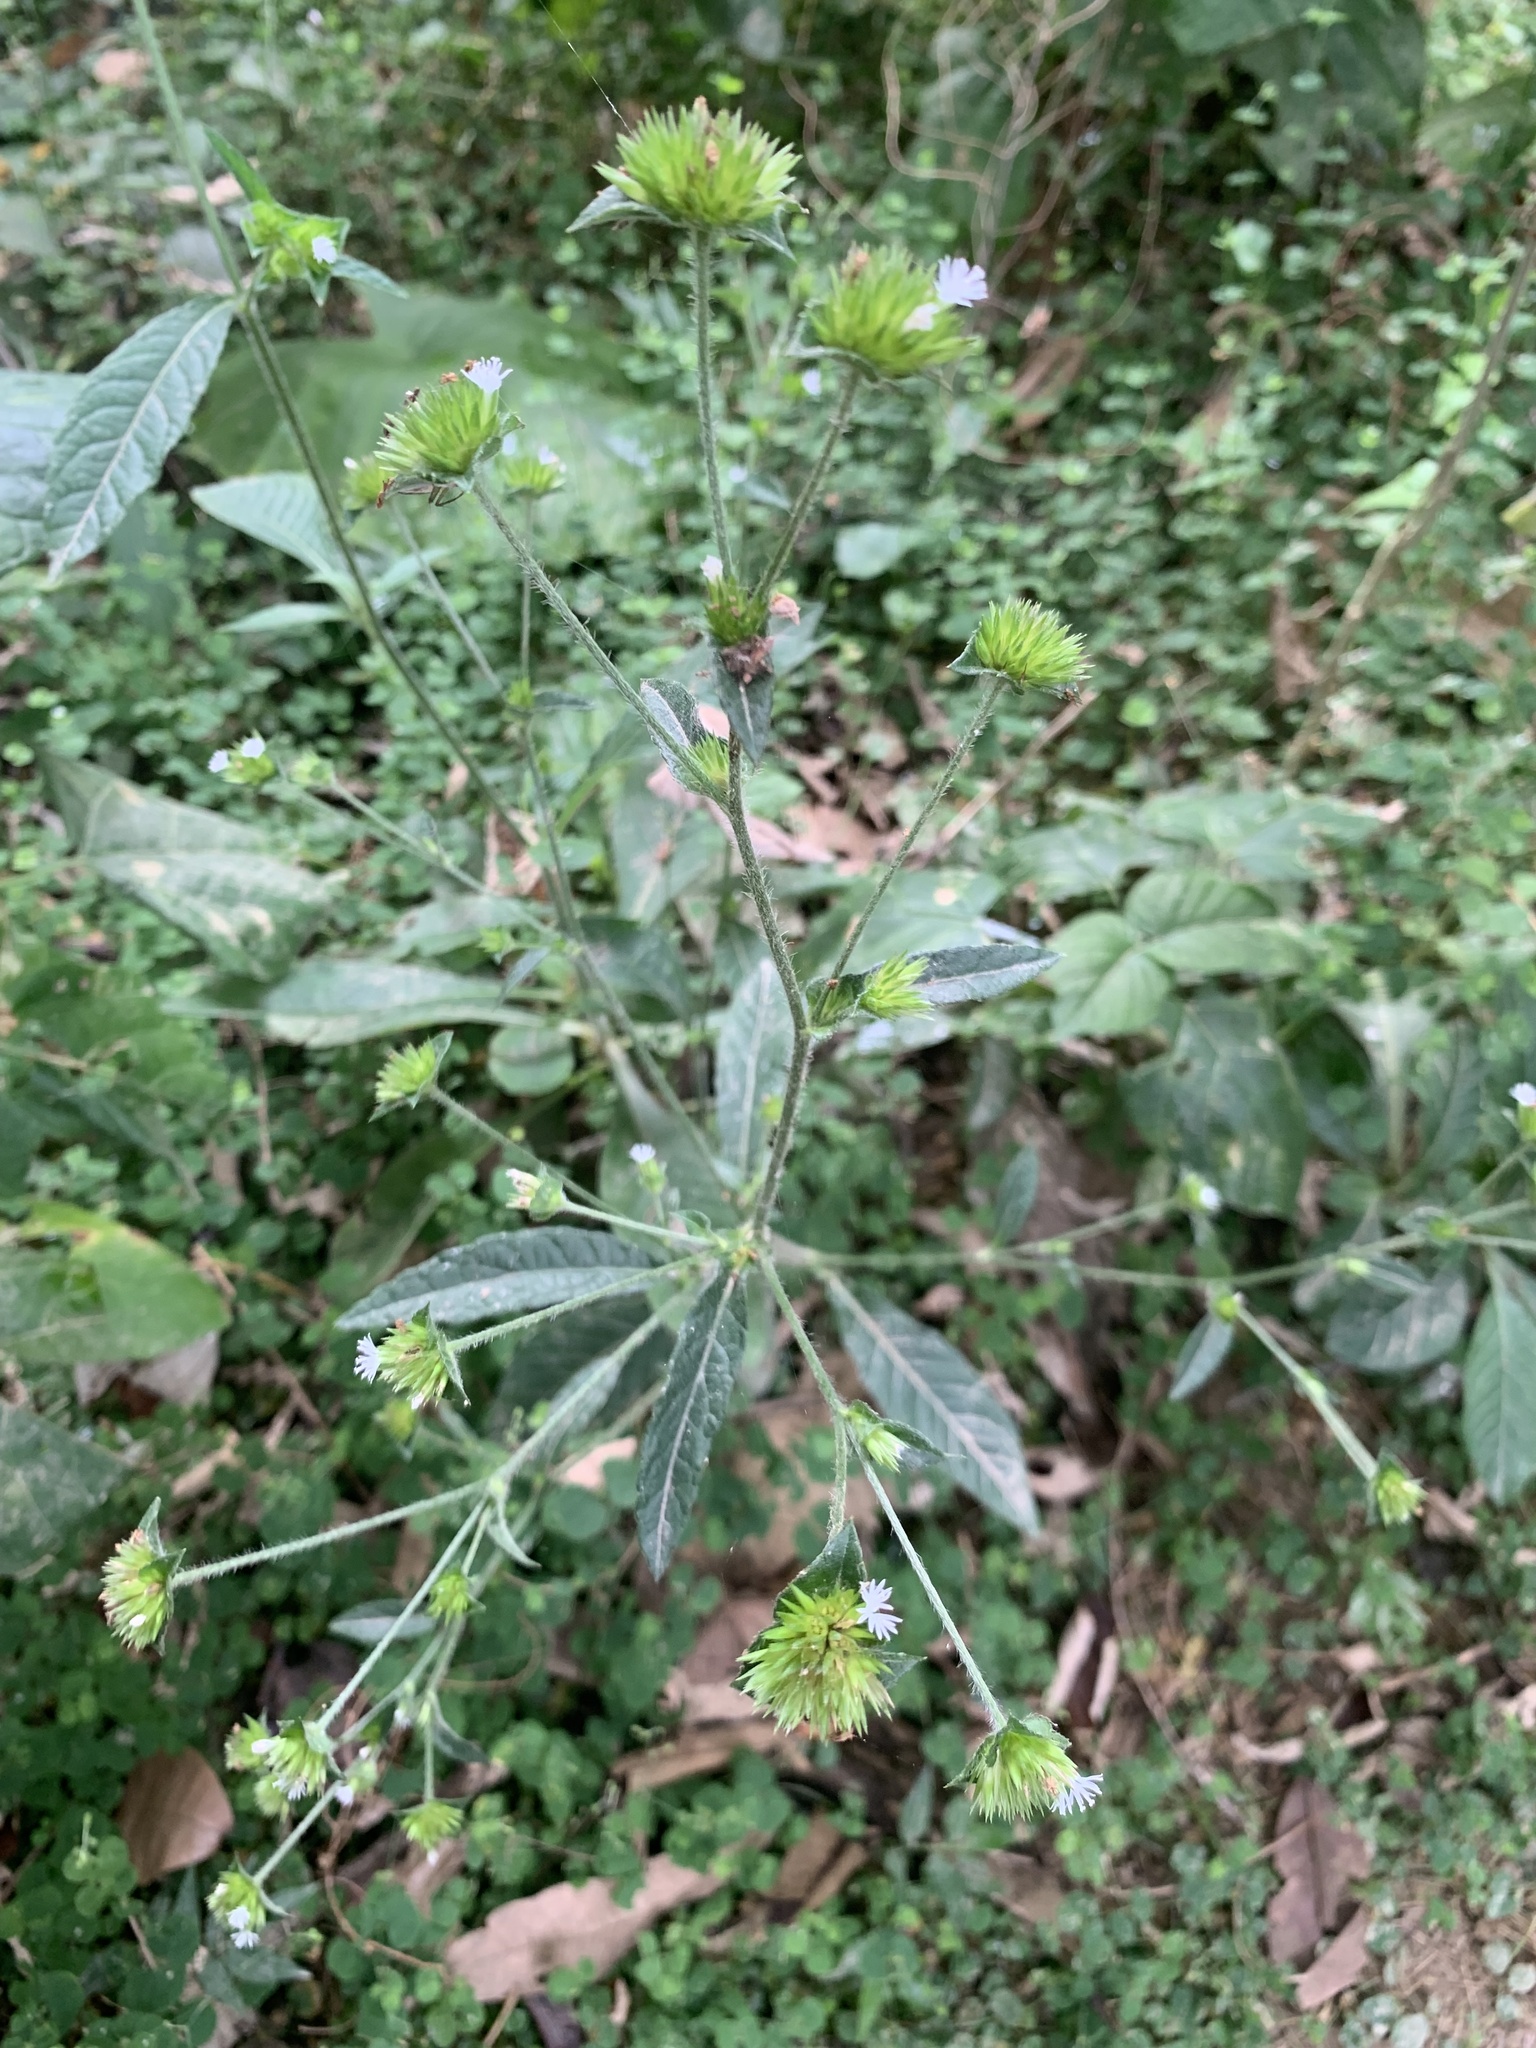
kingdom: Plantae
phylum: Tracheophyta
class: Magnoliopsida
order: Asterales
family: Asteraceae
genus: Elephantopus
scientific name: Elephantopus mollis
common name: Soft elephantsfoot
